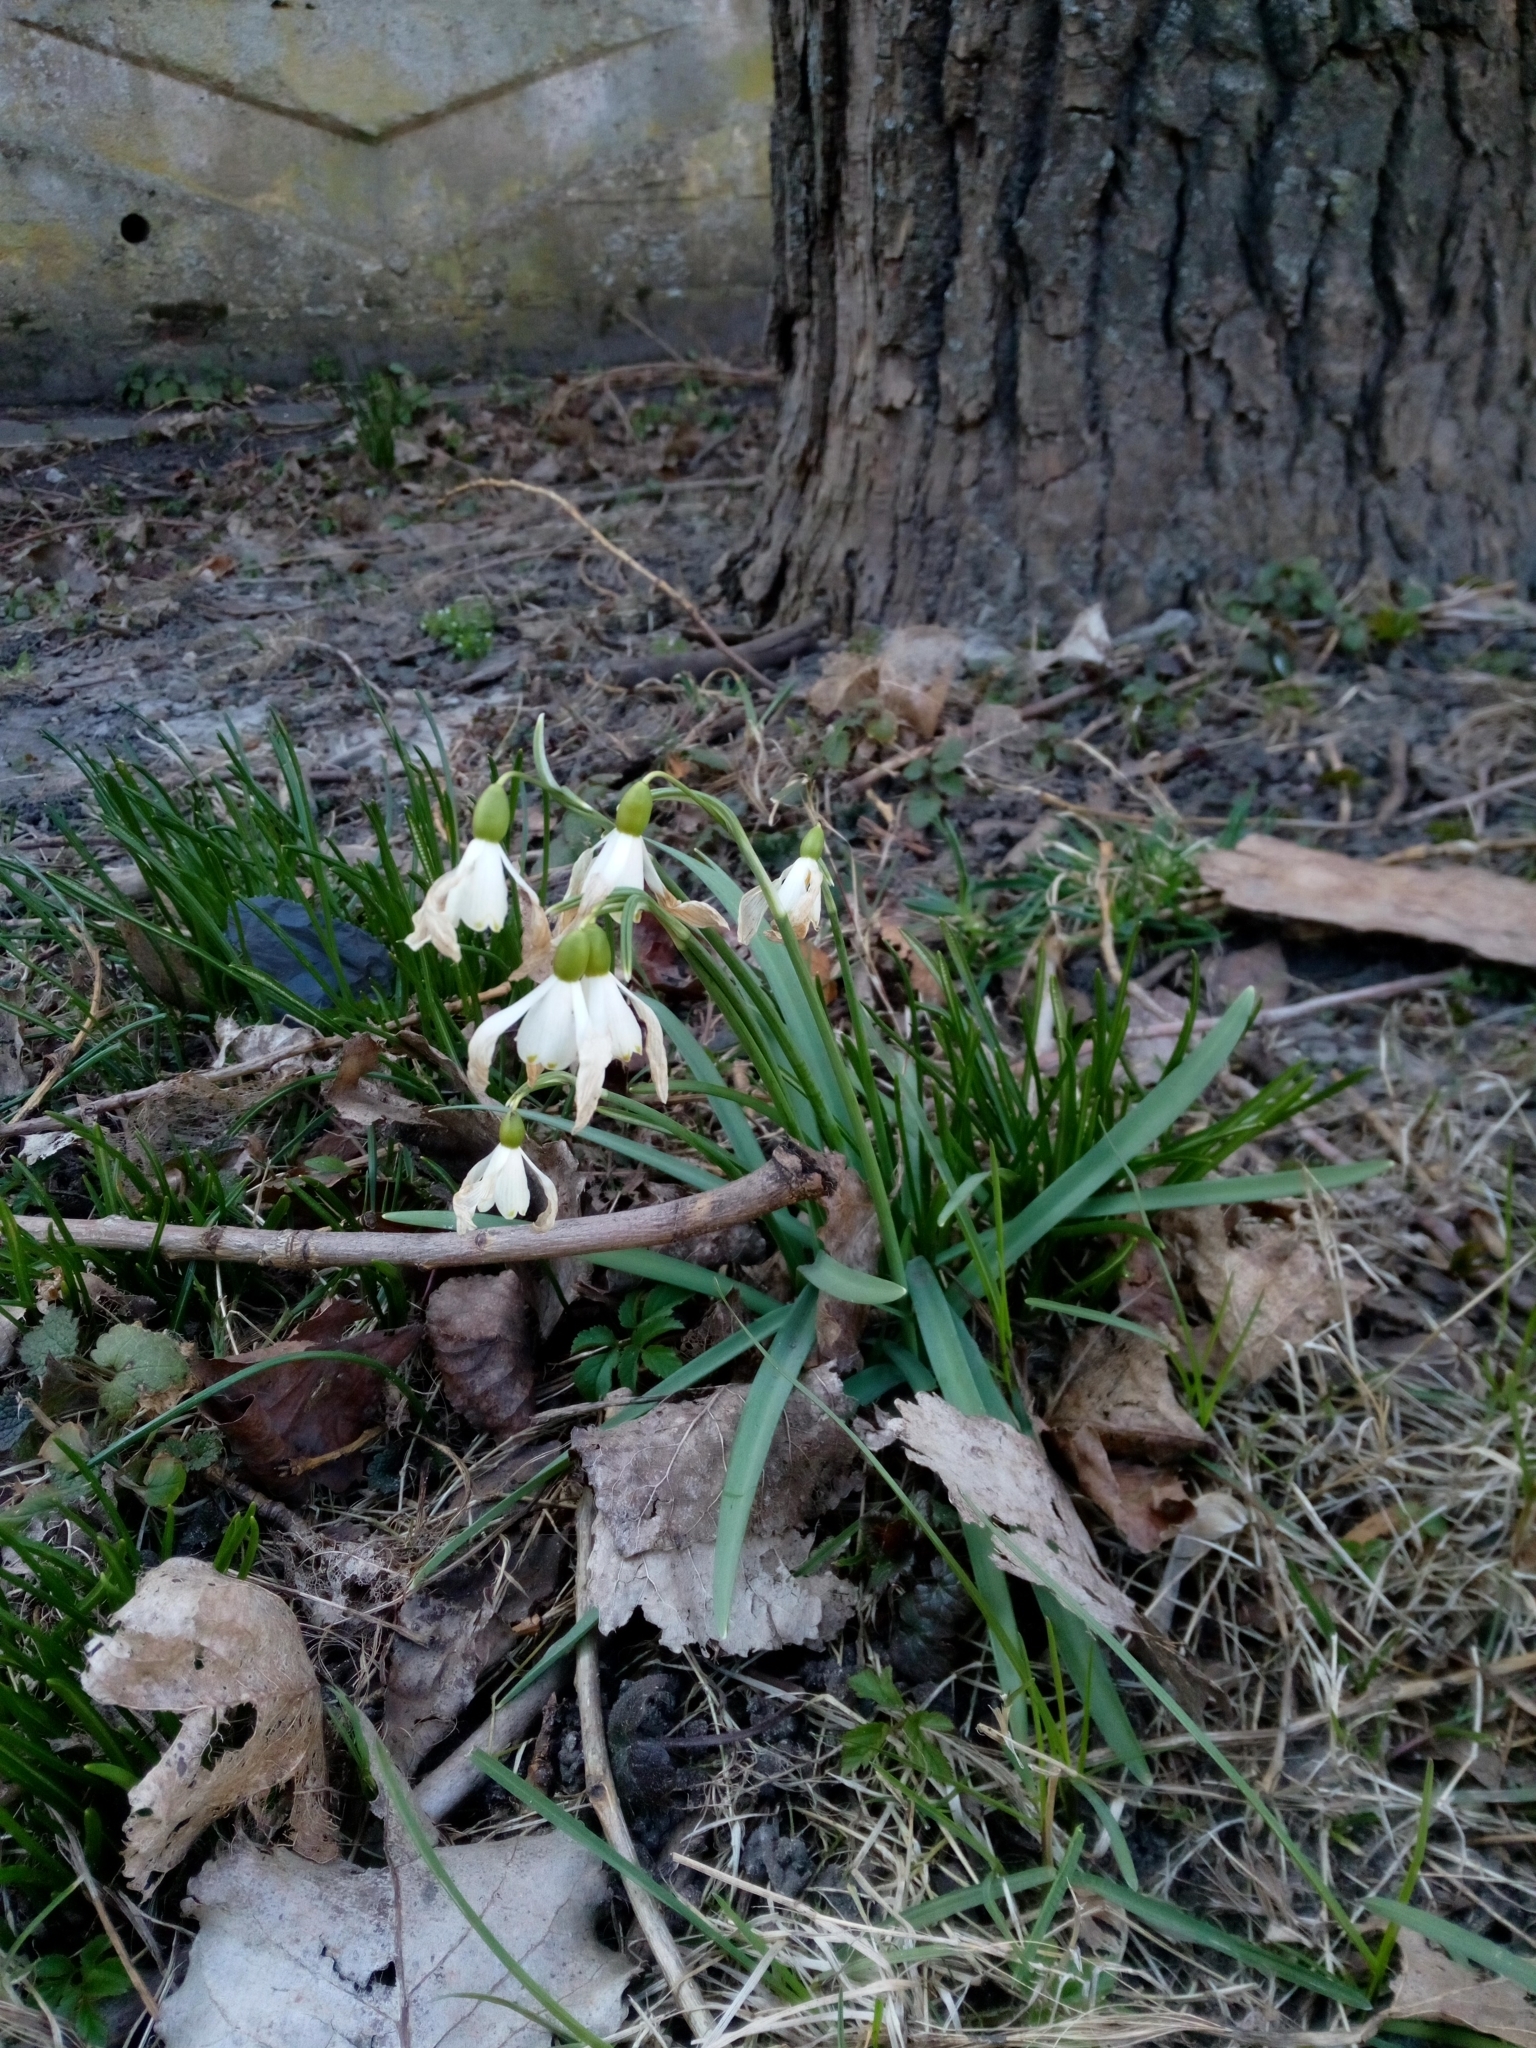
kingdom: Plantae
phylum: Tracheophyta
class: Liliopsida
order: Asparagales
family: Amaryllidaceae
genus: Galanthus
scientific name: Galanthus nivalis
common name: Snowdrop
